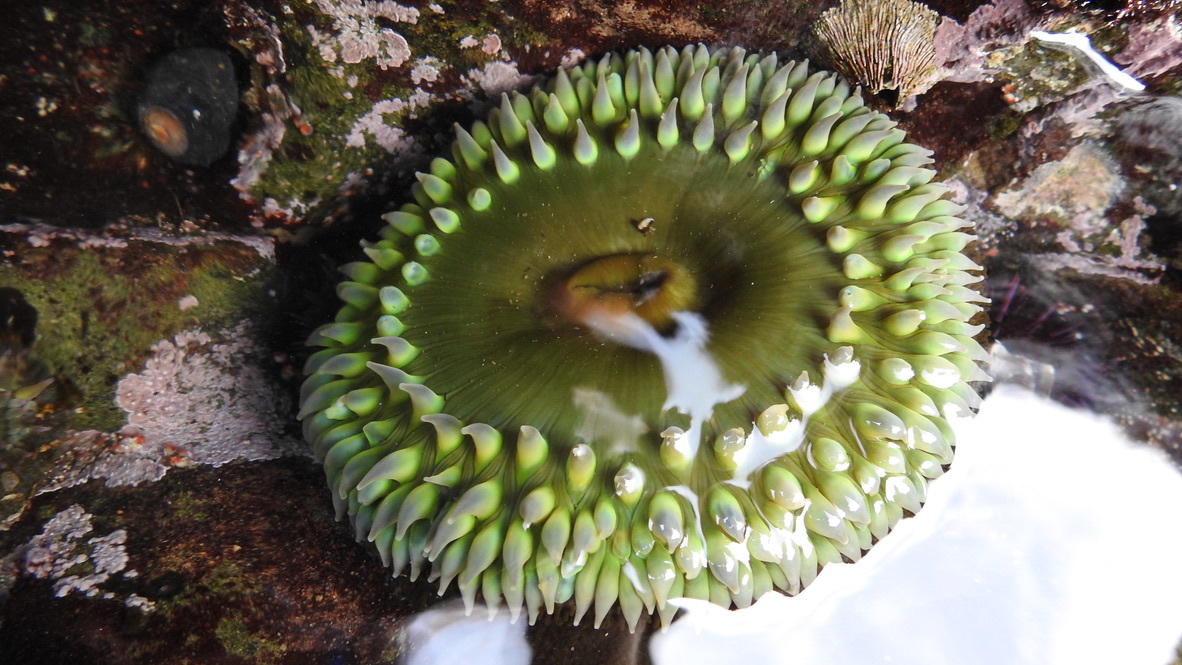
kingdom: Animalia
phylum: Cnidaria
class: Anthozoa
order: Actiniaria
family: Actiniidae
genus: Anthopleura
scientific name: Anthopleura xanthogrammica
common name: Giant green anemone
